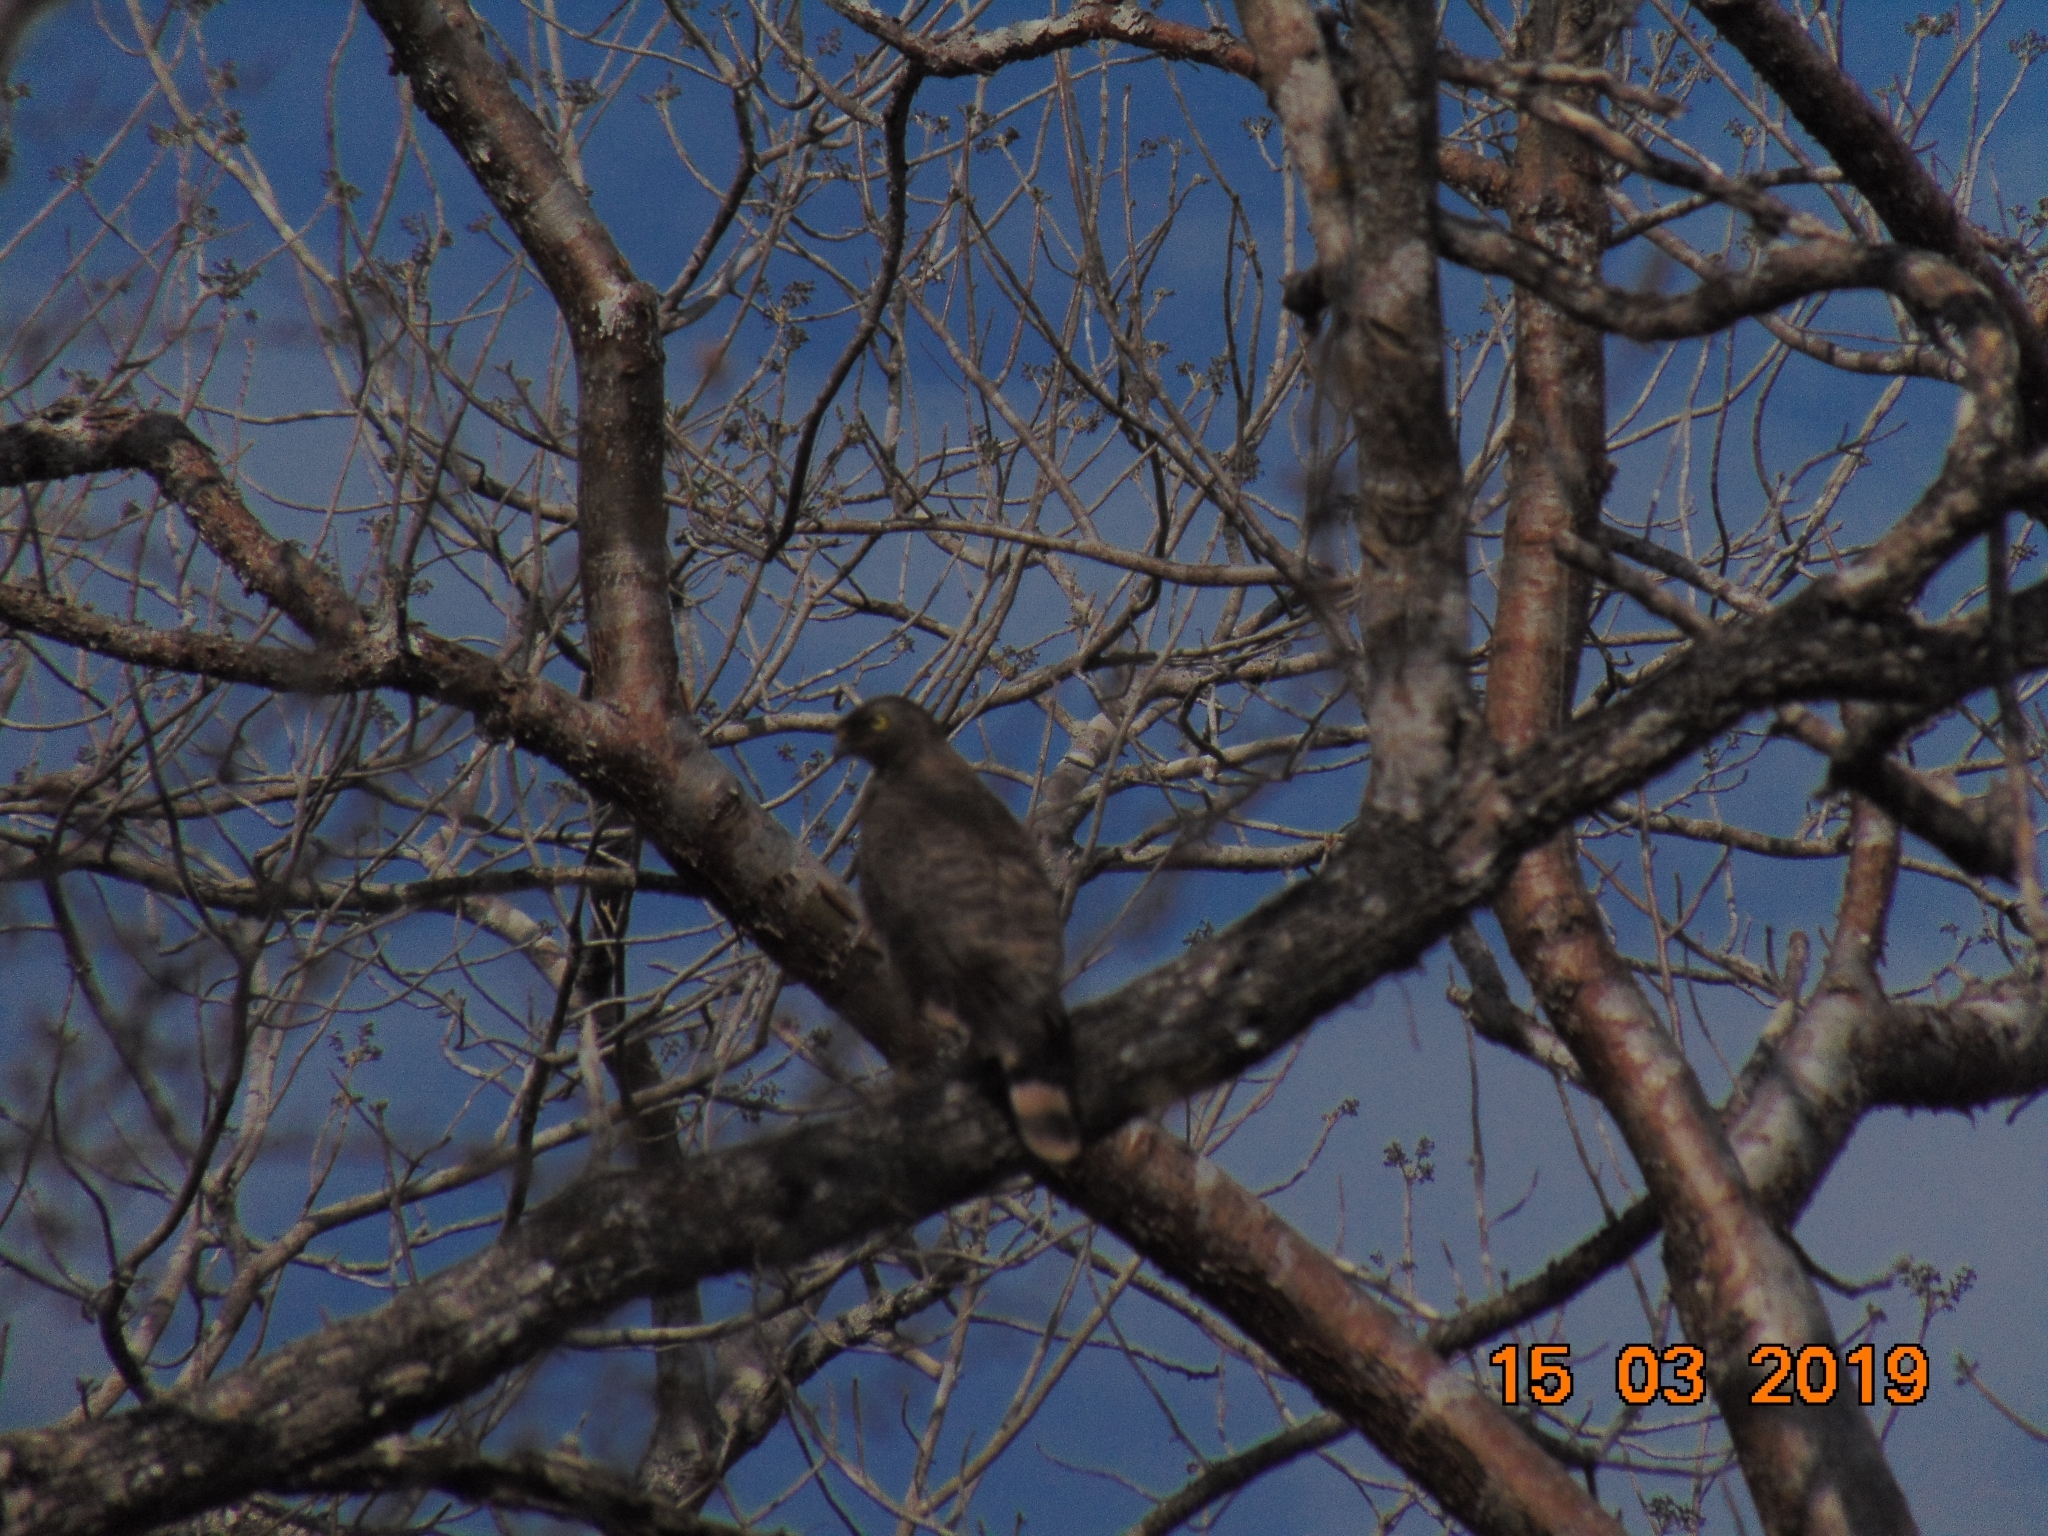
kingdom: Animalia
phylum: Chordata
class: Aves
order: Accipitriformes
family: Accipitridae
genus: Rupornis
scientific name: Rupornis magnirostris
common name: Roadside hawk
